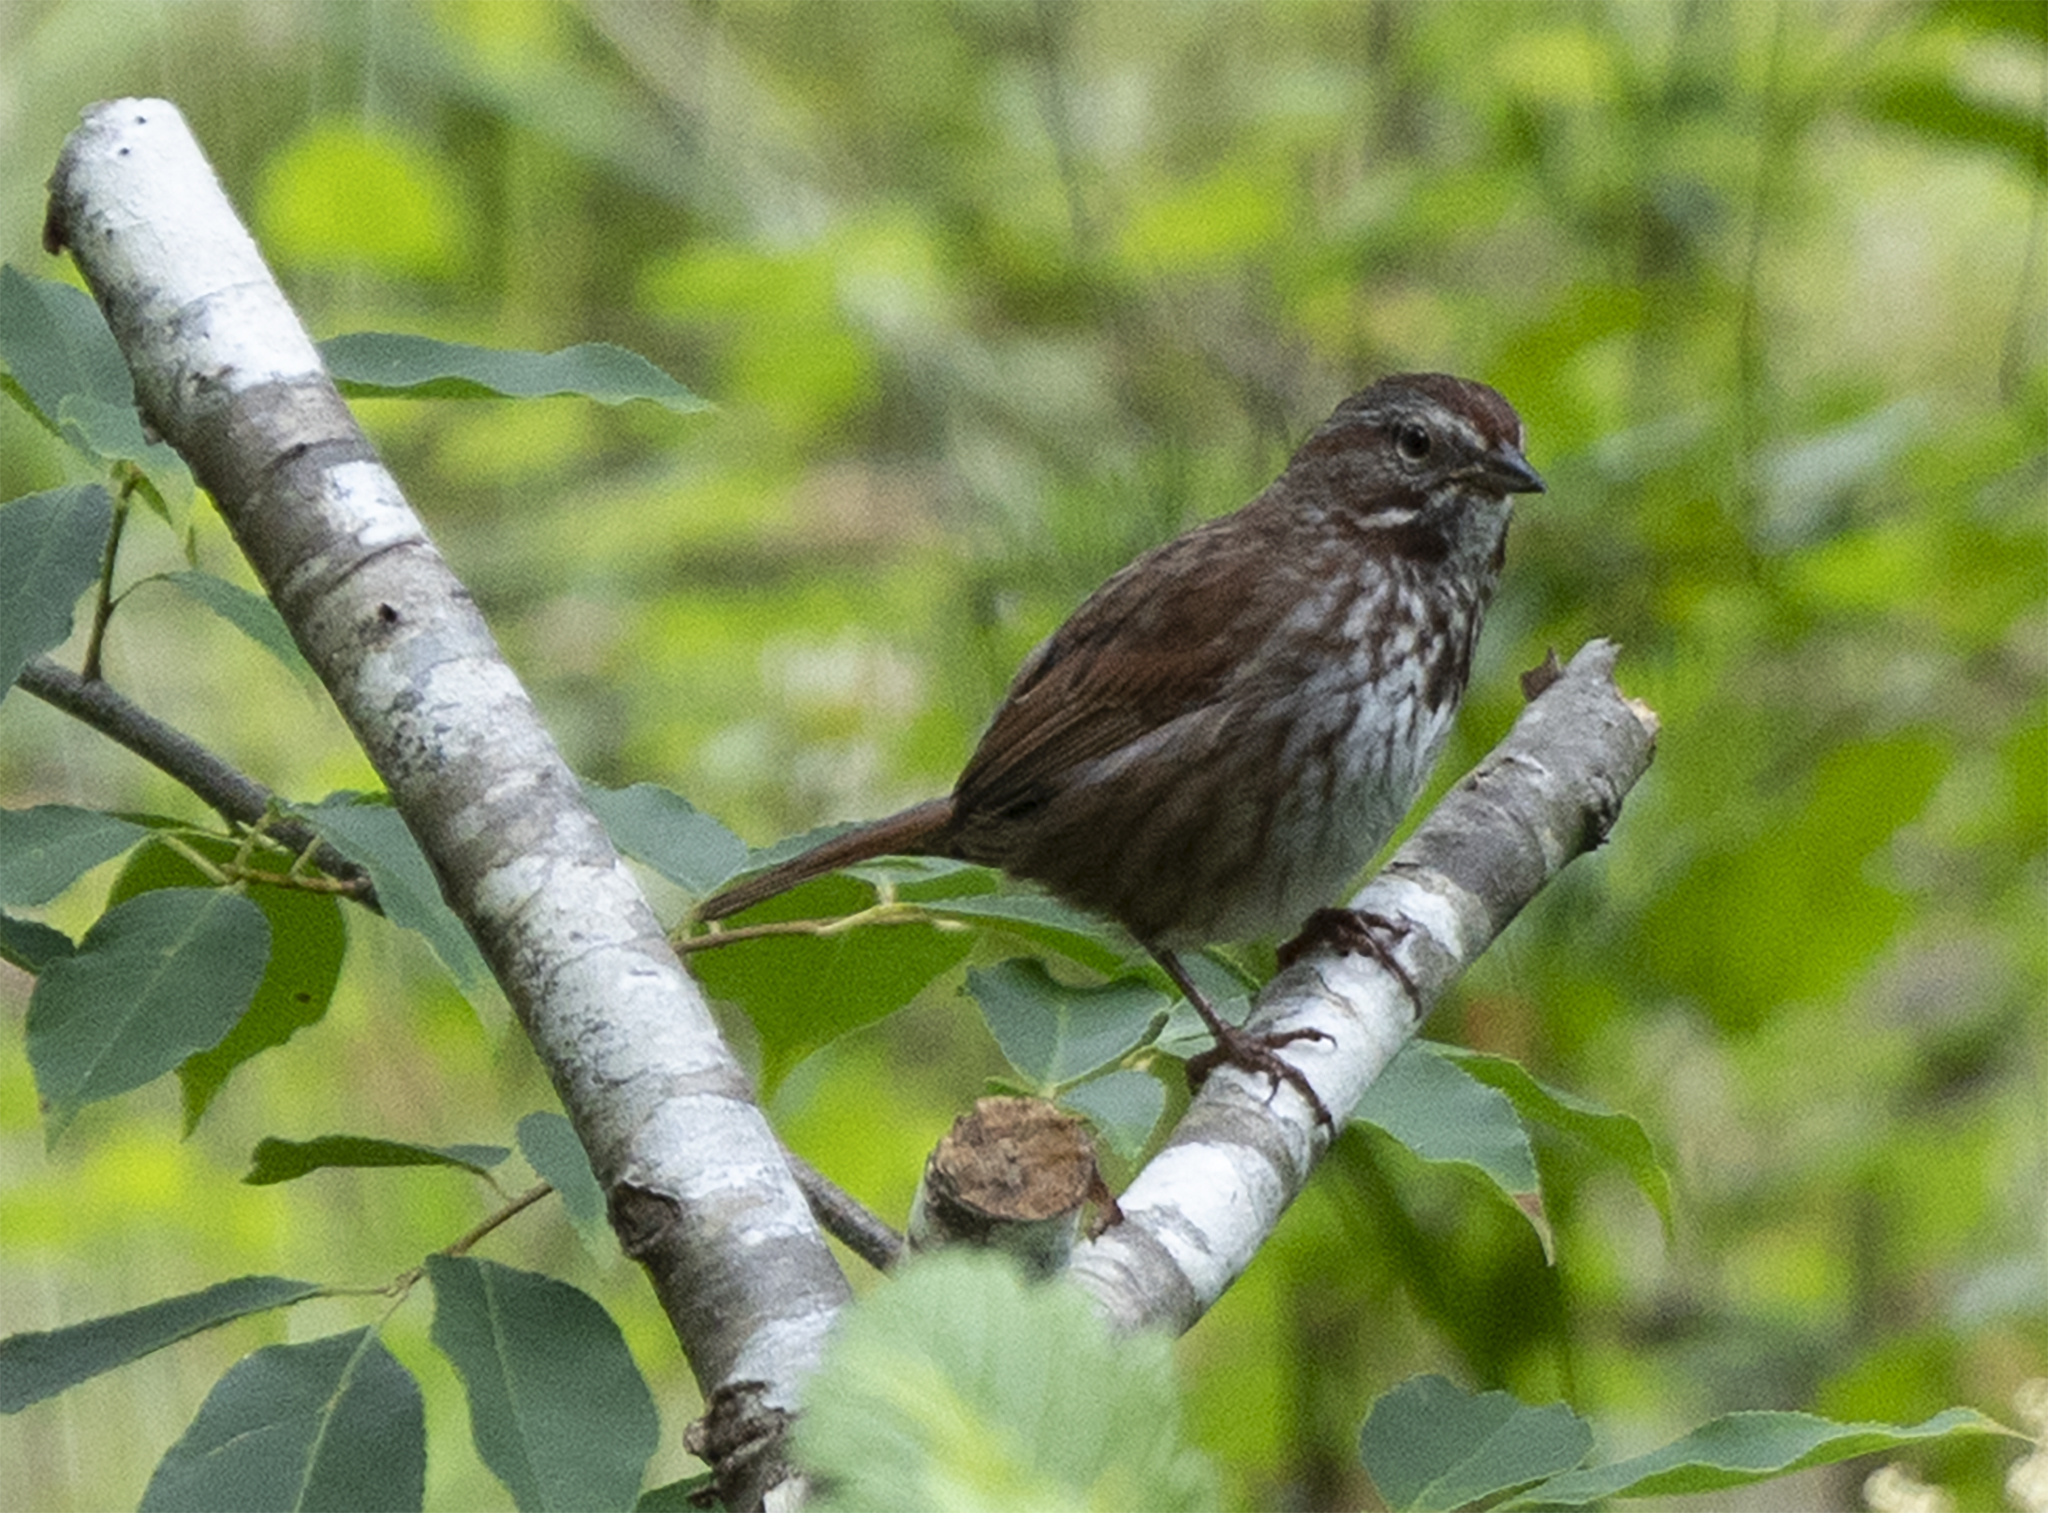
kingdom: Animalia
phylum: Chordata
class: Aves
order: Passeriformes
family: Passerellidae
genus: Melospiza
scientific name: Melospiza melodia
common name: Song sparrow
